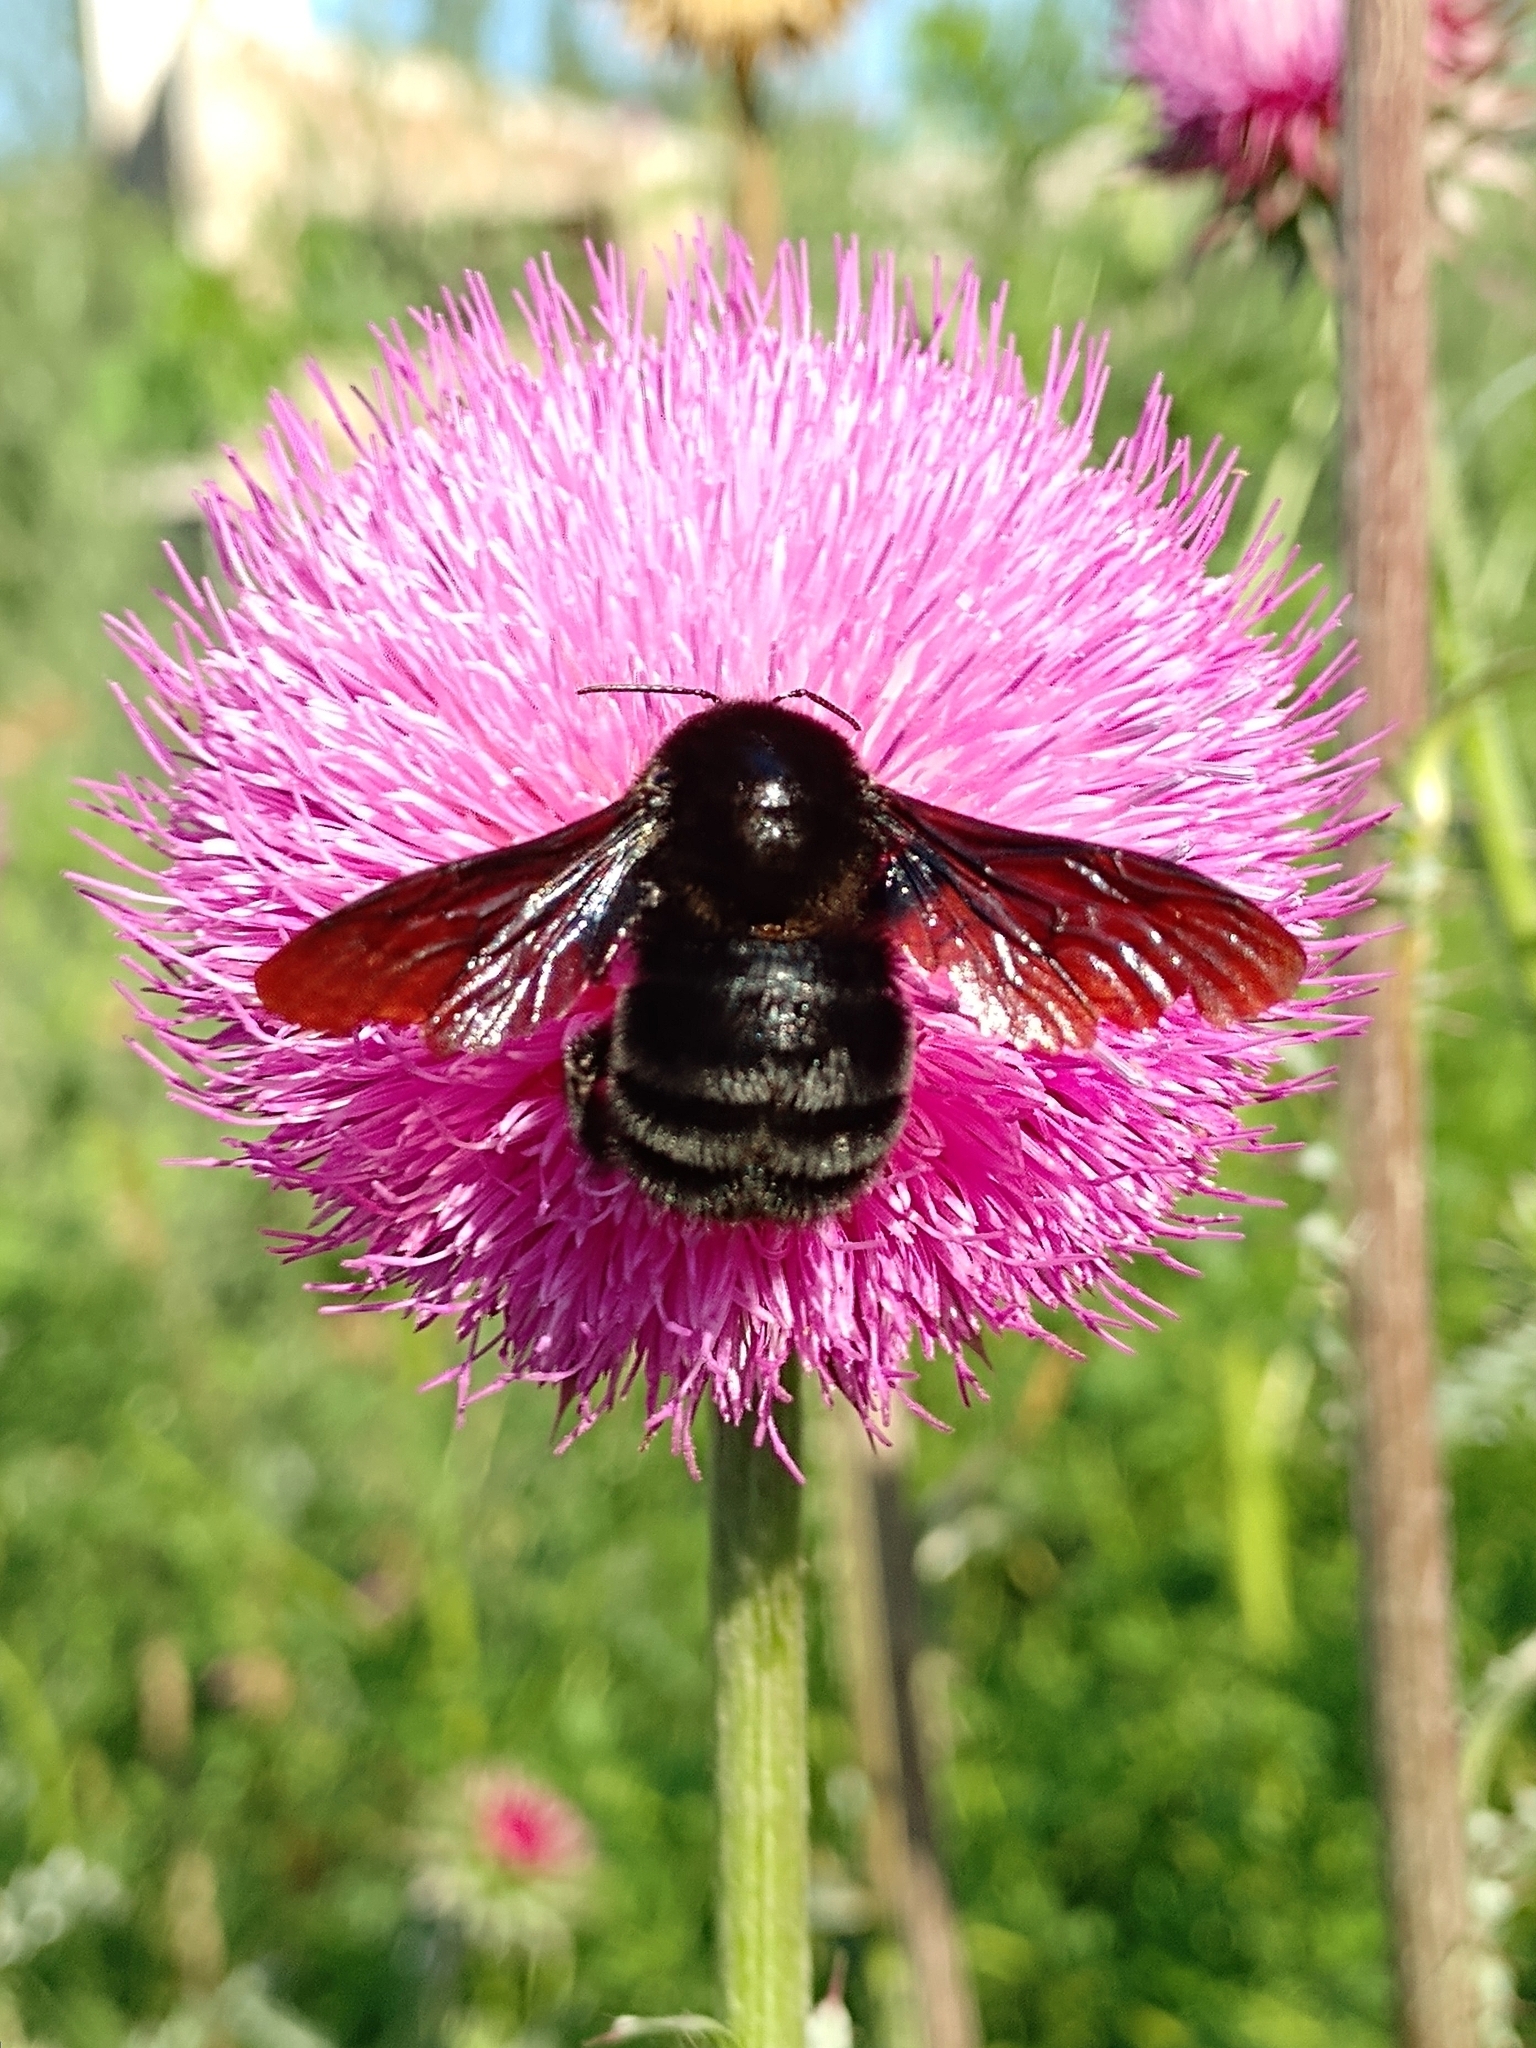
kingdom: Animalia
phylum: Arthropoda
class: Insecta
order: Hymenoptera
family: Apidae
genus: Bombus
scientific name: Bombus pauloensis
